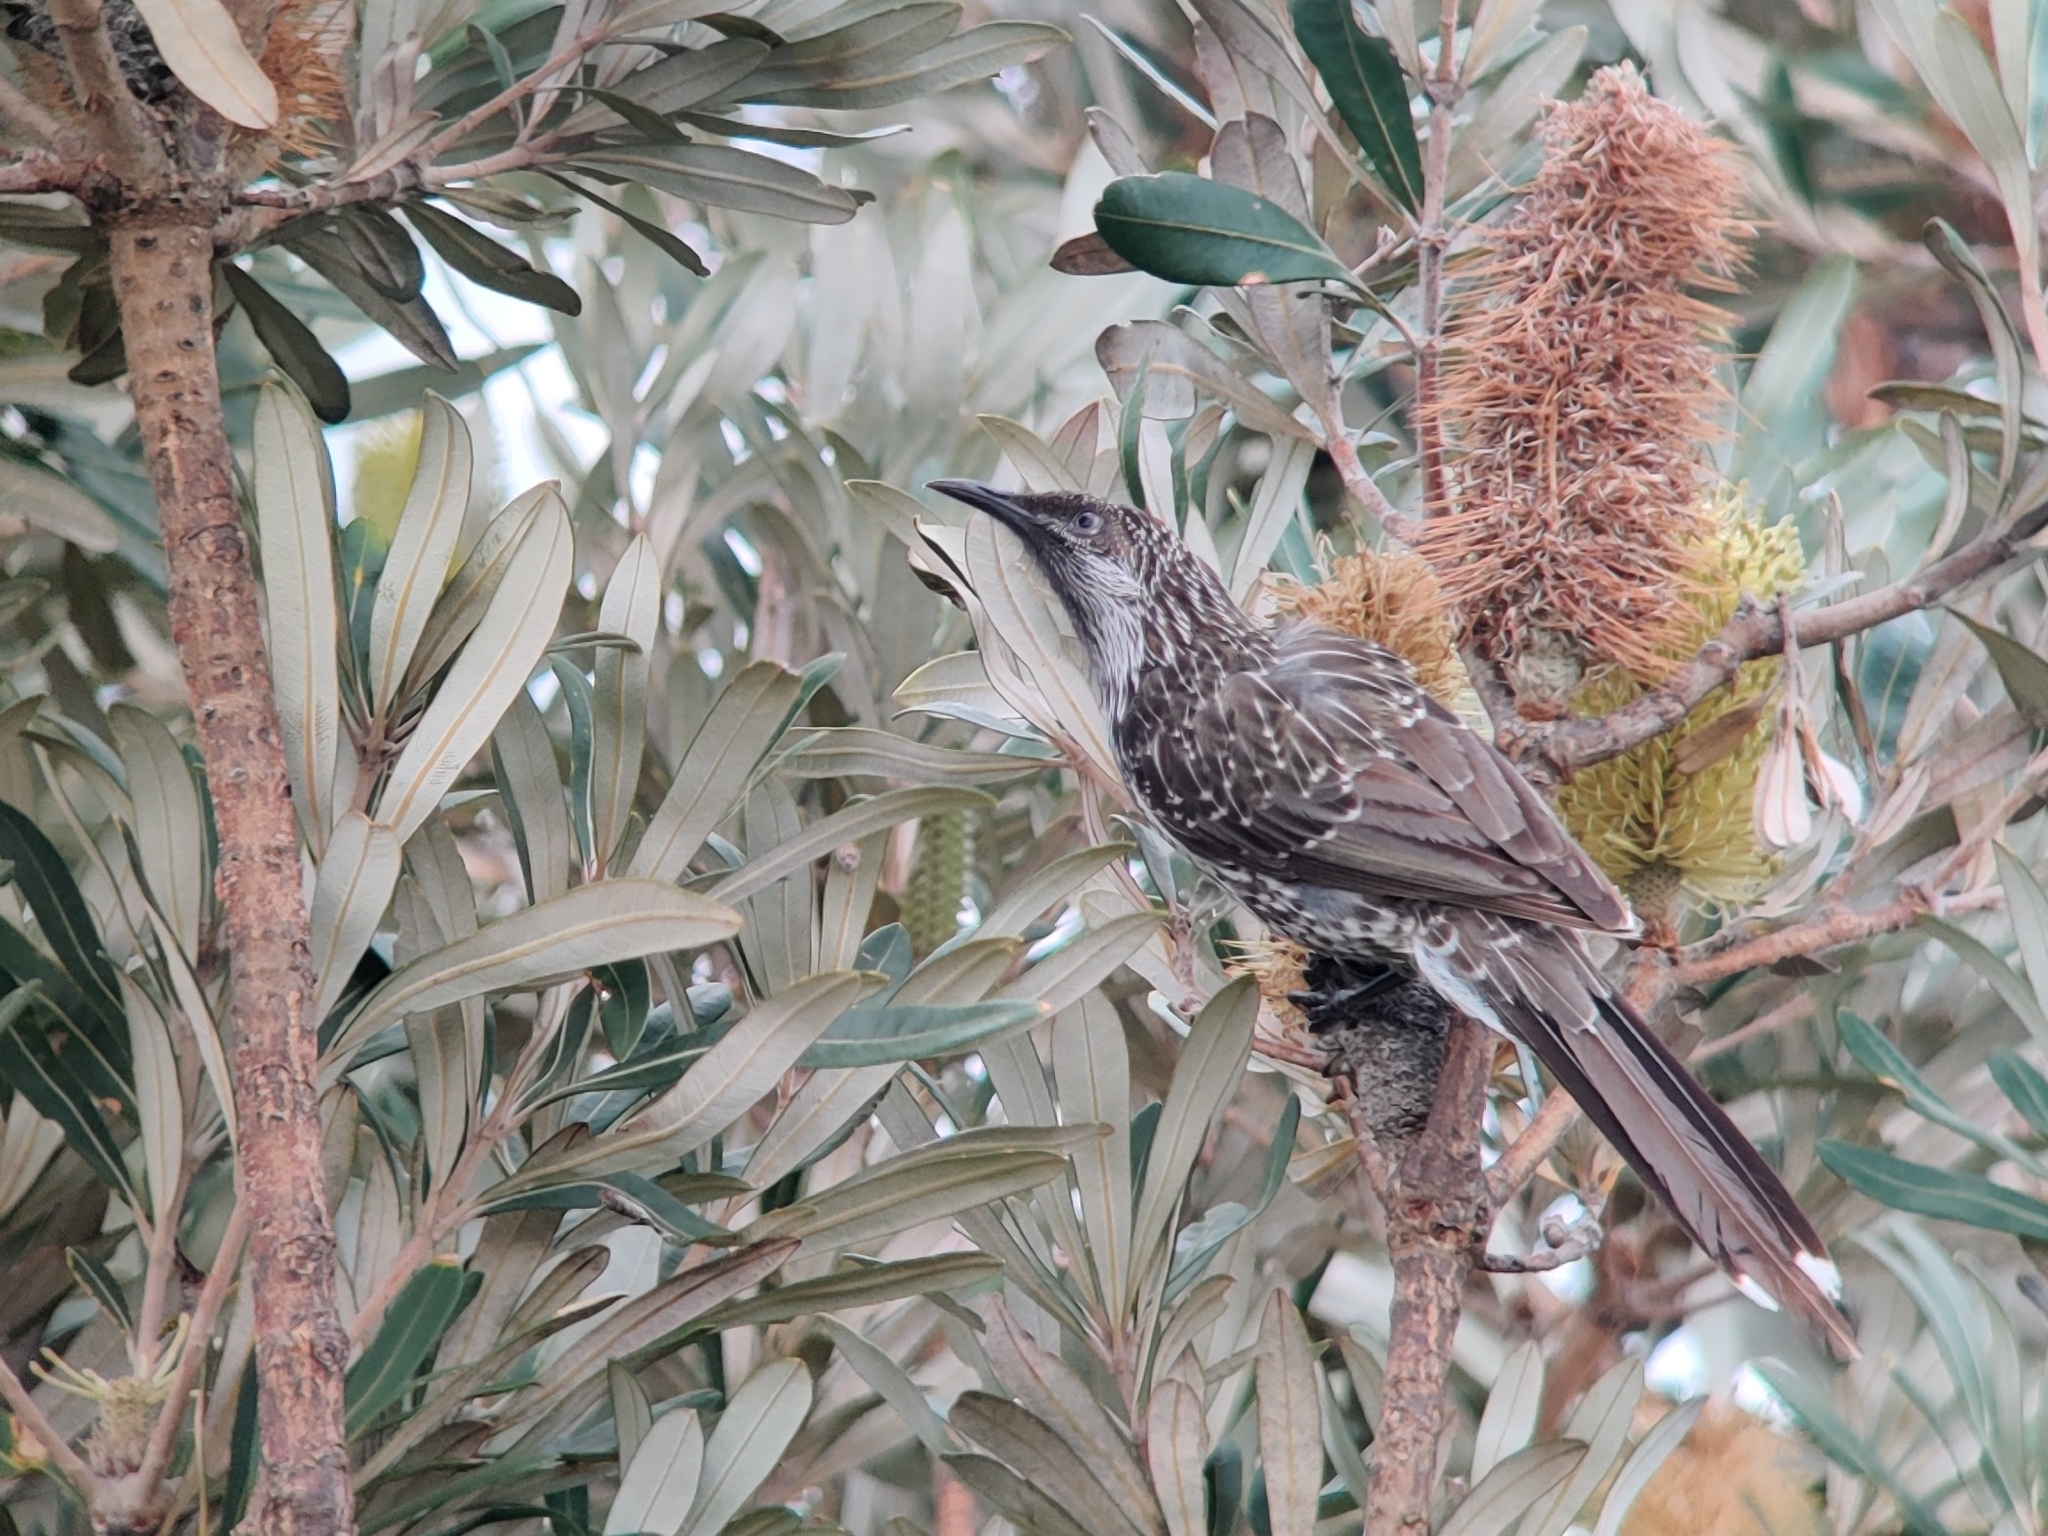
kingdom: Animalia
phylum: Chordata
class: Aves
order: Passeriformes
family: Meliphagidae
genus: Anthochaera
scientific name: Anthochaera chrysoptera
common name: Little wattlebird
